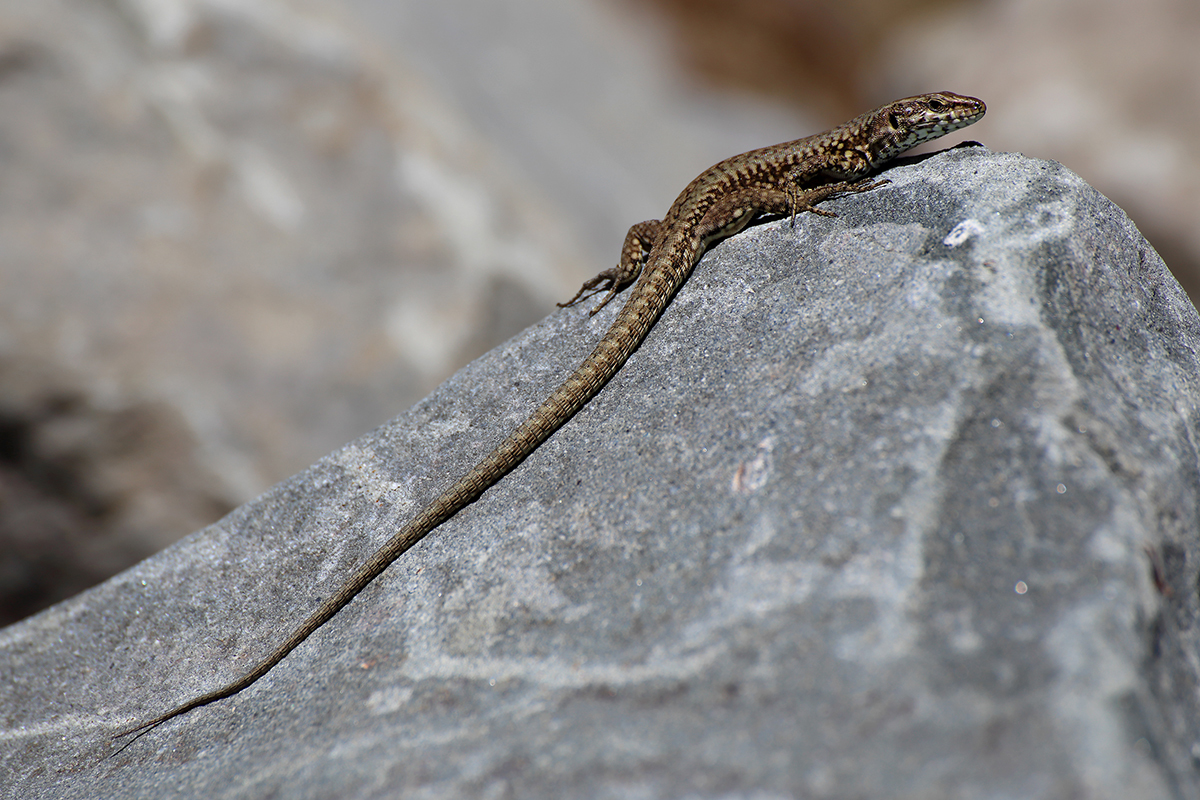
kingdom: Animalia
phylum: Chordata
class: Squamata
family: Lacertidae
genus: Podarcis
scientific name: Podarcis muralis
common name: Common wall lizard
